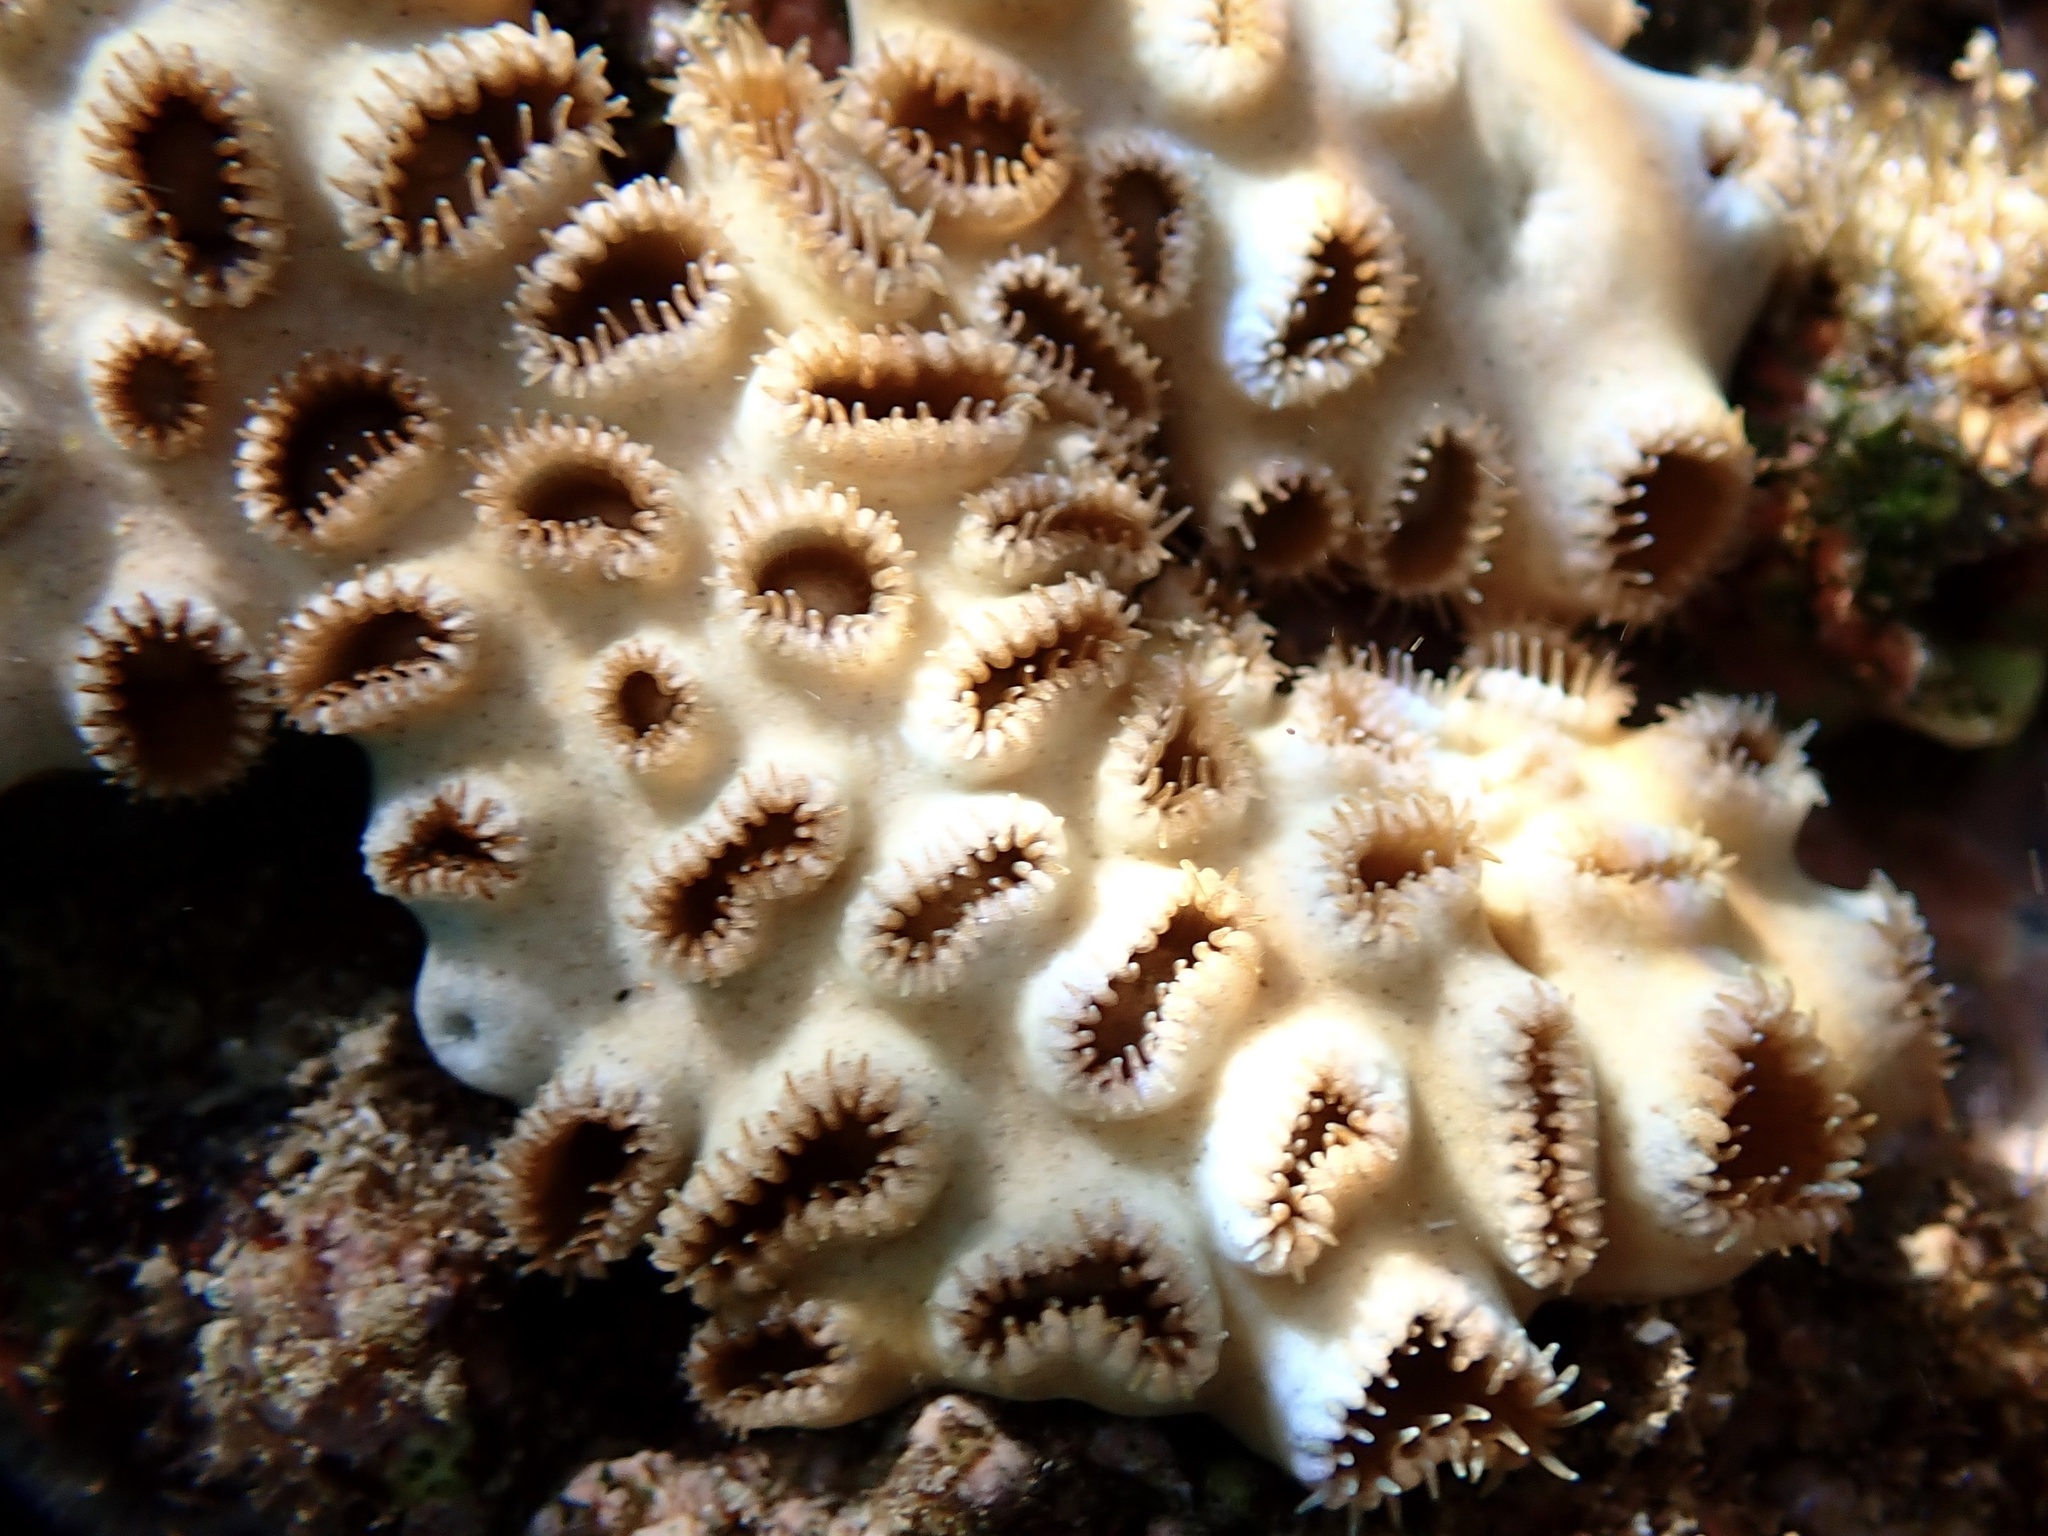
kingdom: Animalia
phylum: Cnidaria
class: Anthozoa
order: Zoantharia
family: Sphenopidae
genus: Palythoa
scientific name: Palythoa tuberculosa
